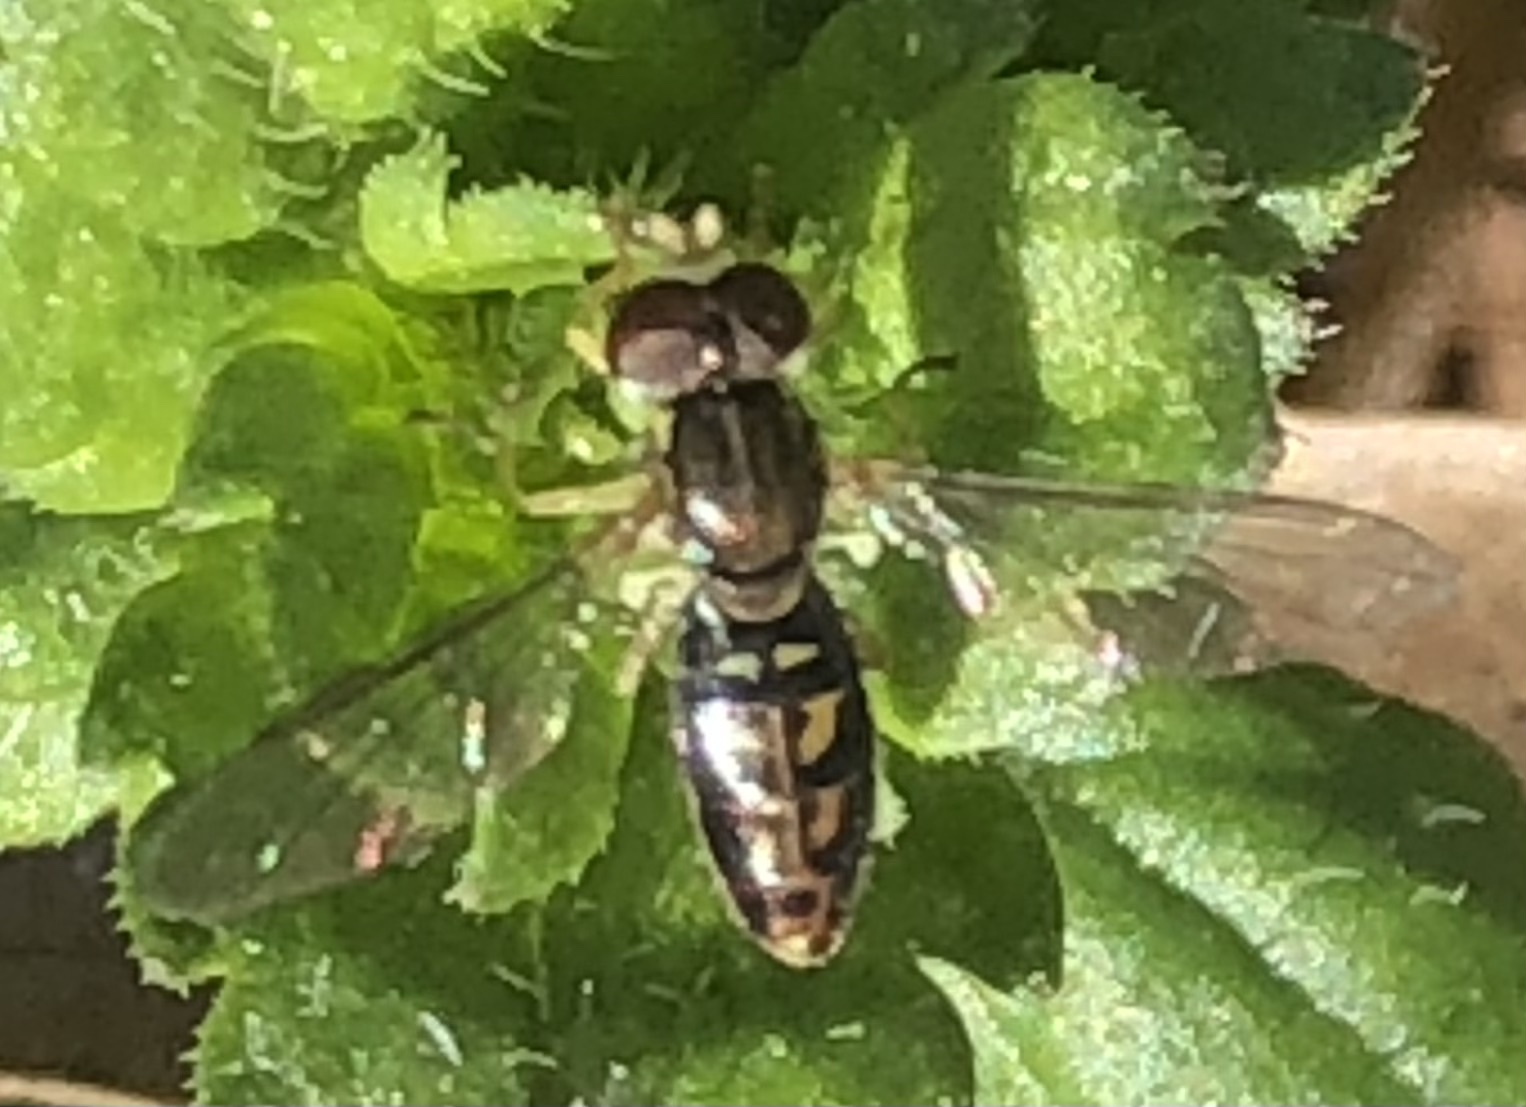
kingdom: Animalia
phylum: Arthropoda
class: Insecta
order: Diptera
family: Syrphidae
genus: Toxomerus
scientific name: Toxomerus marginatus
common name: Syrphid fly
